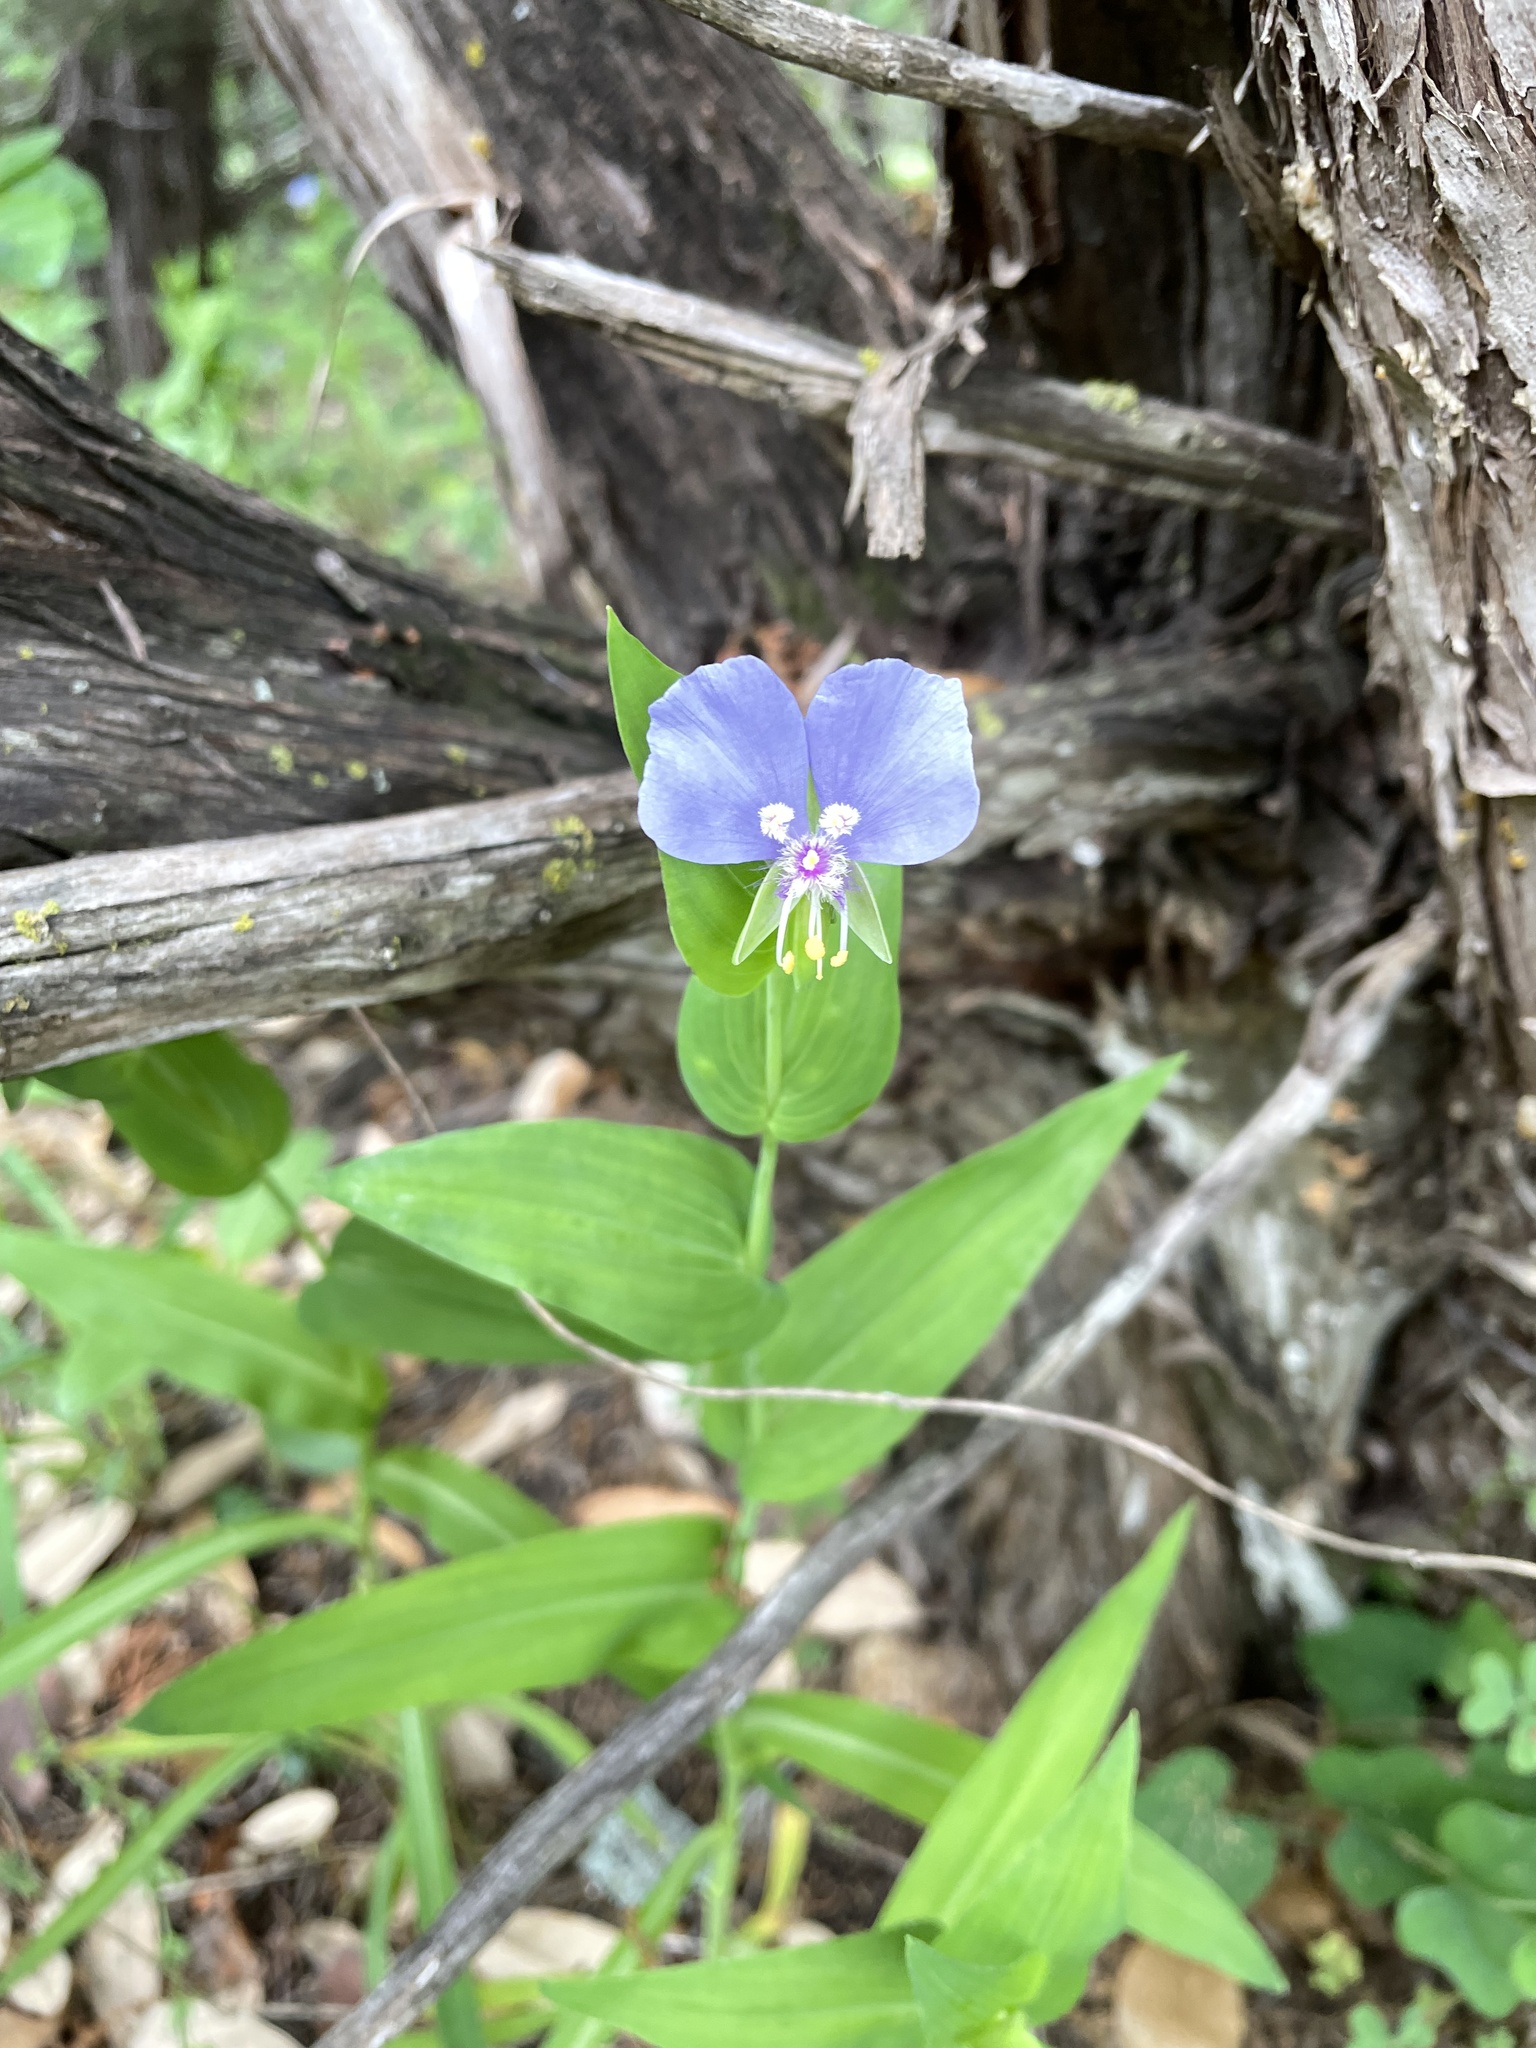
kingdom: Plantae
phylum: Tracheophyta
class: Liliopsida
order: Commelinales
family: Commelinaceae
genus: Tinantia
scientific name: Tinantia anomala
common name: False dayflower
